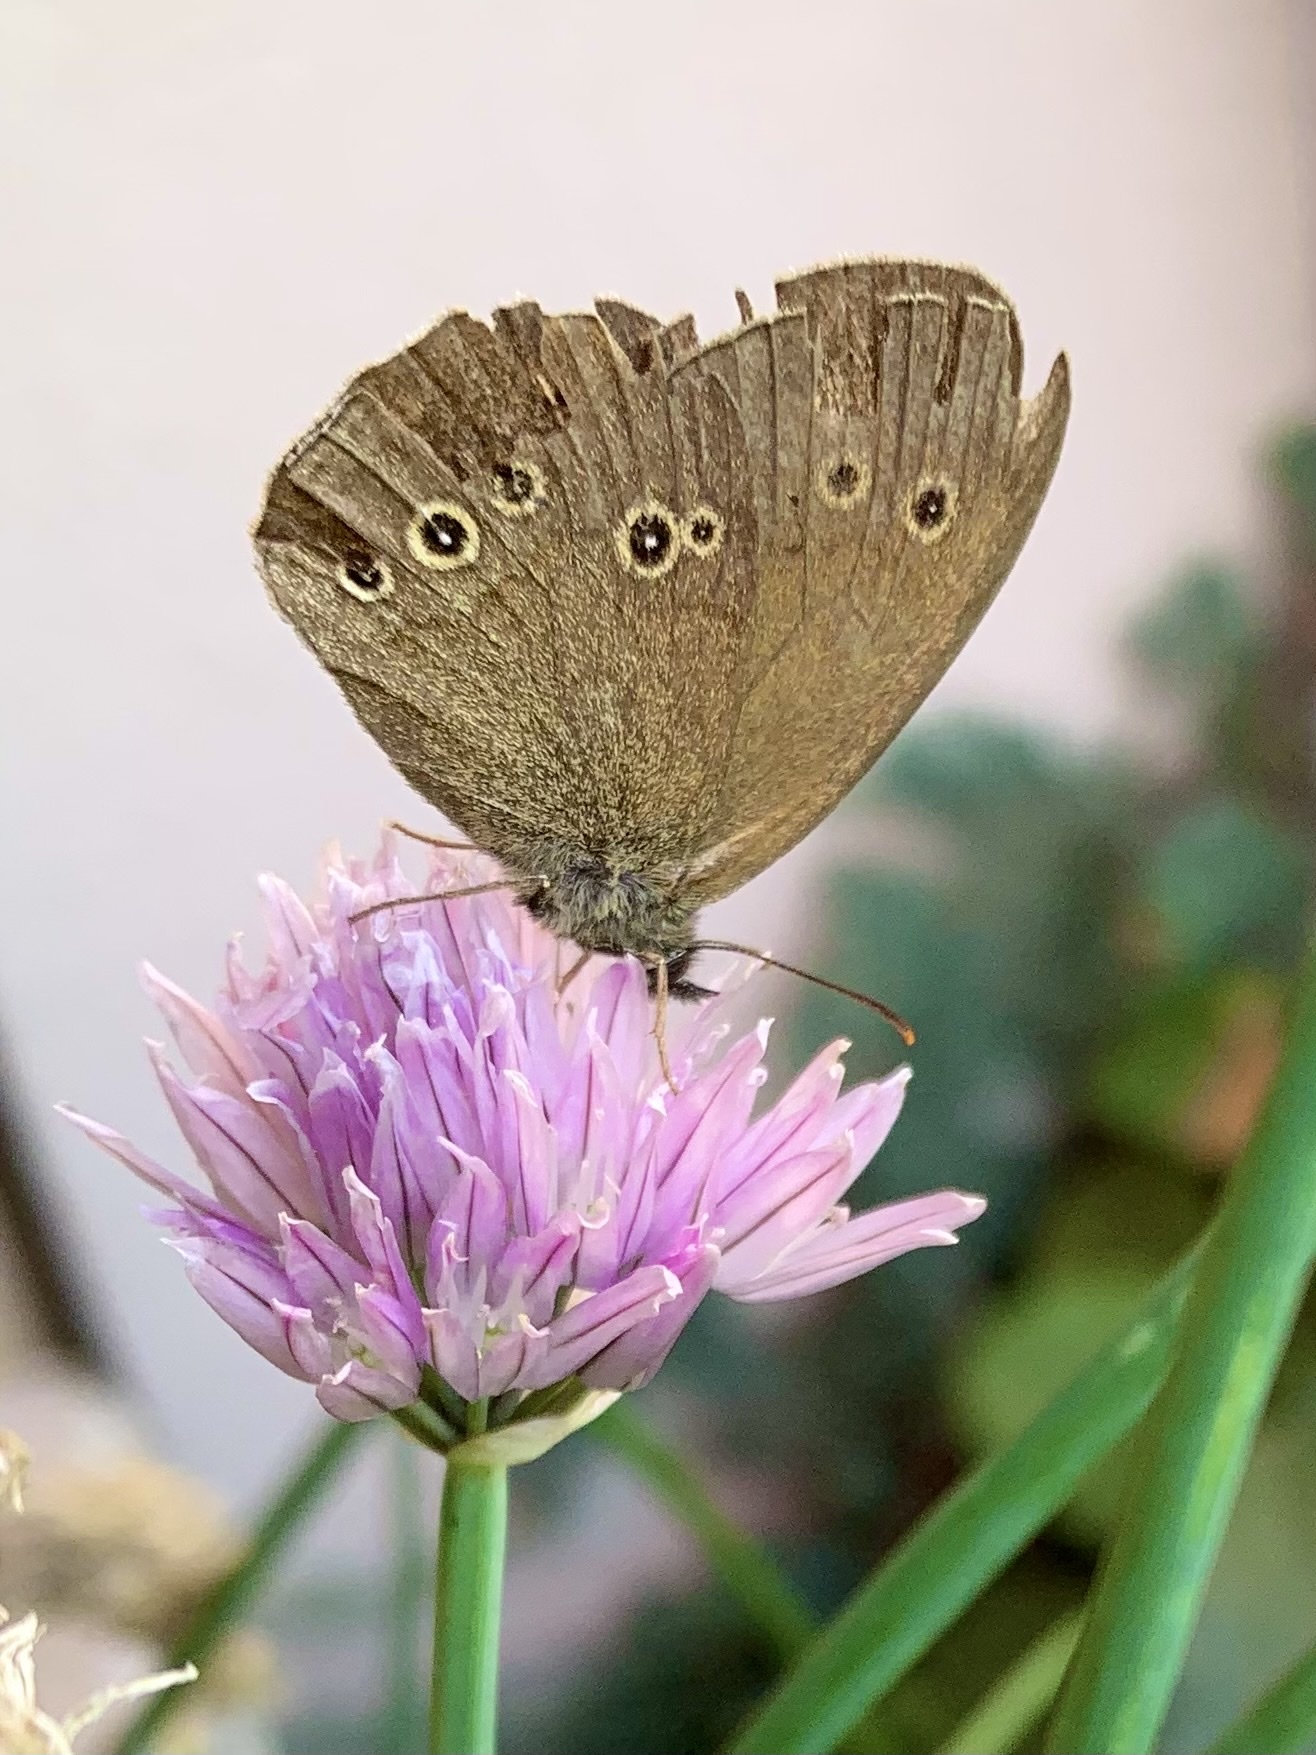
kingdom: Animalia
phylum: Arthropoda
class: Insecta
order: Lepidoptera
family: Nymphalidae
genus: Aphantopus
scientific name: Aphantopus hyperantus
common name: Ringlet
